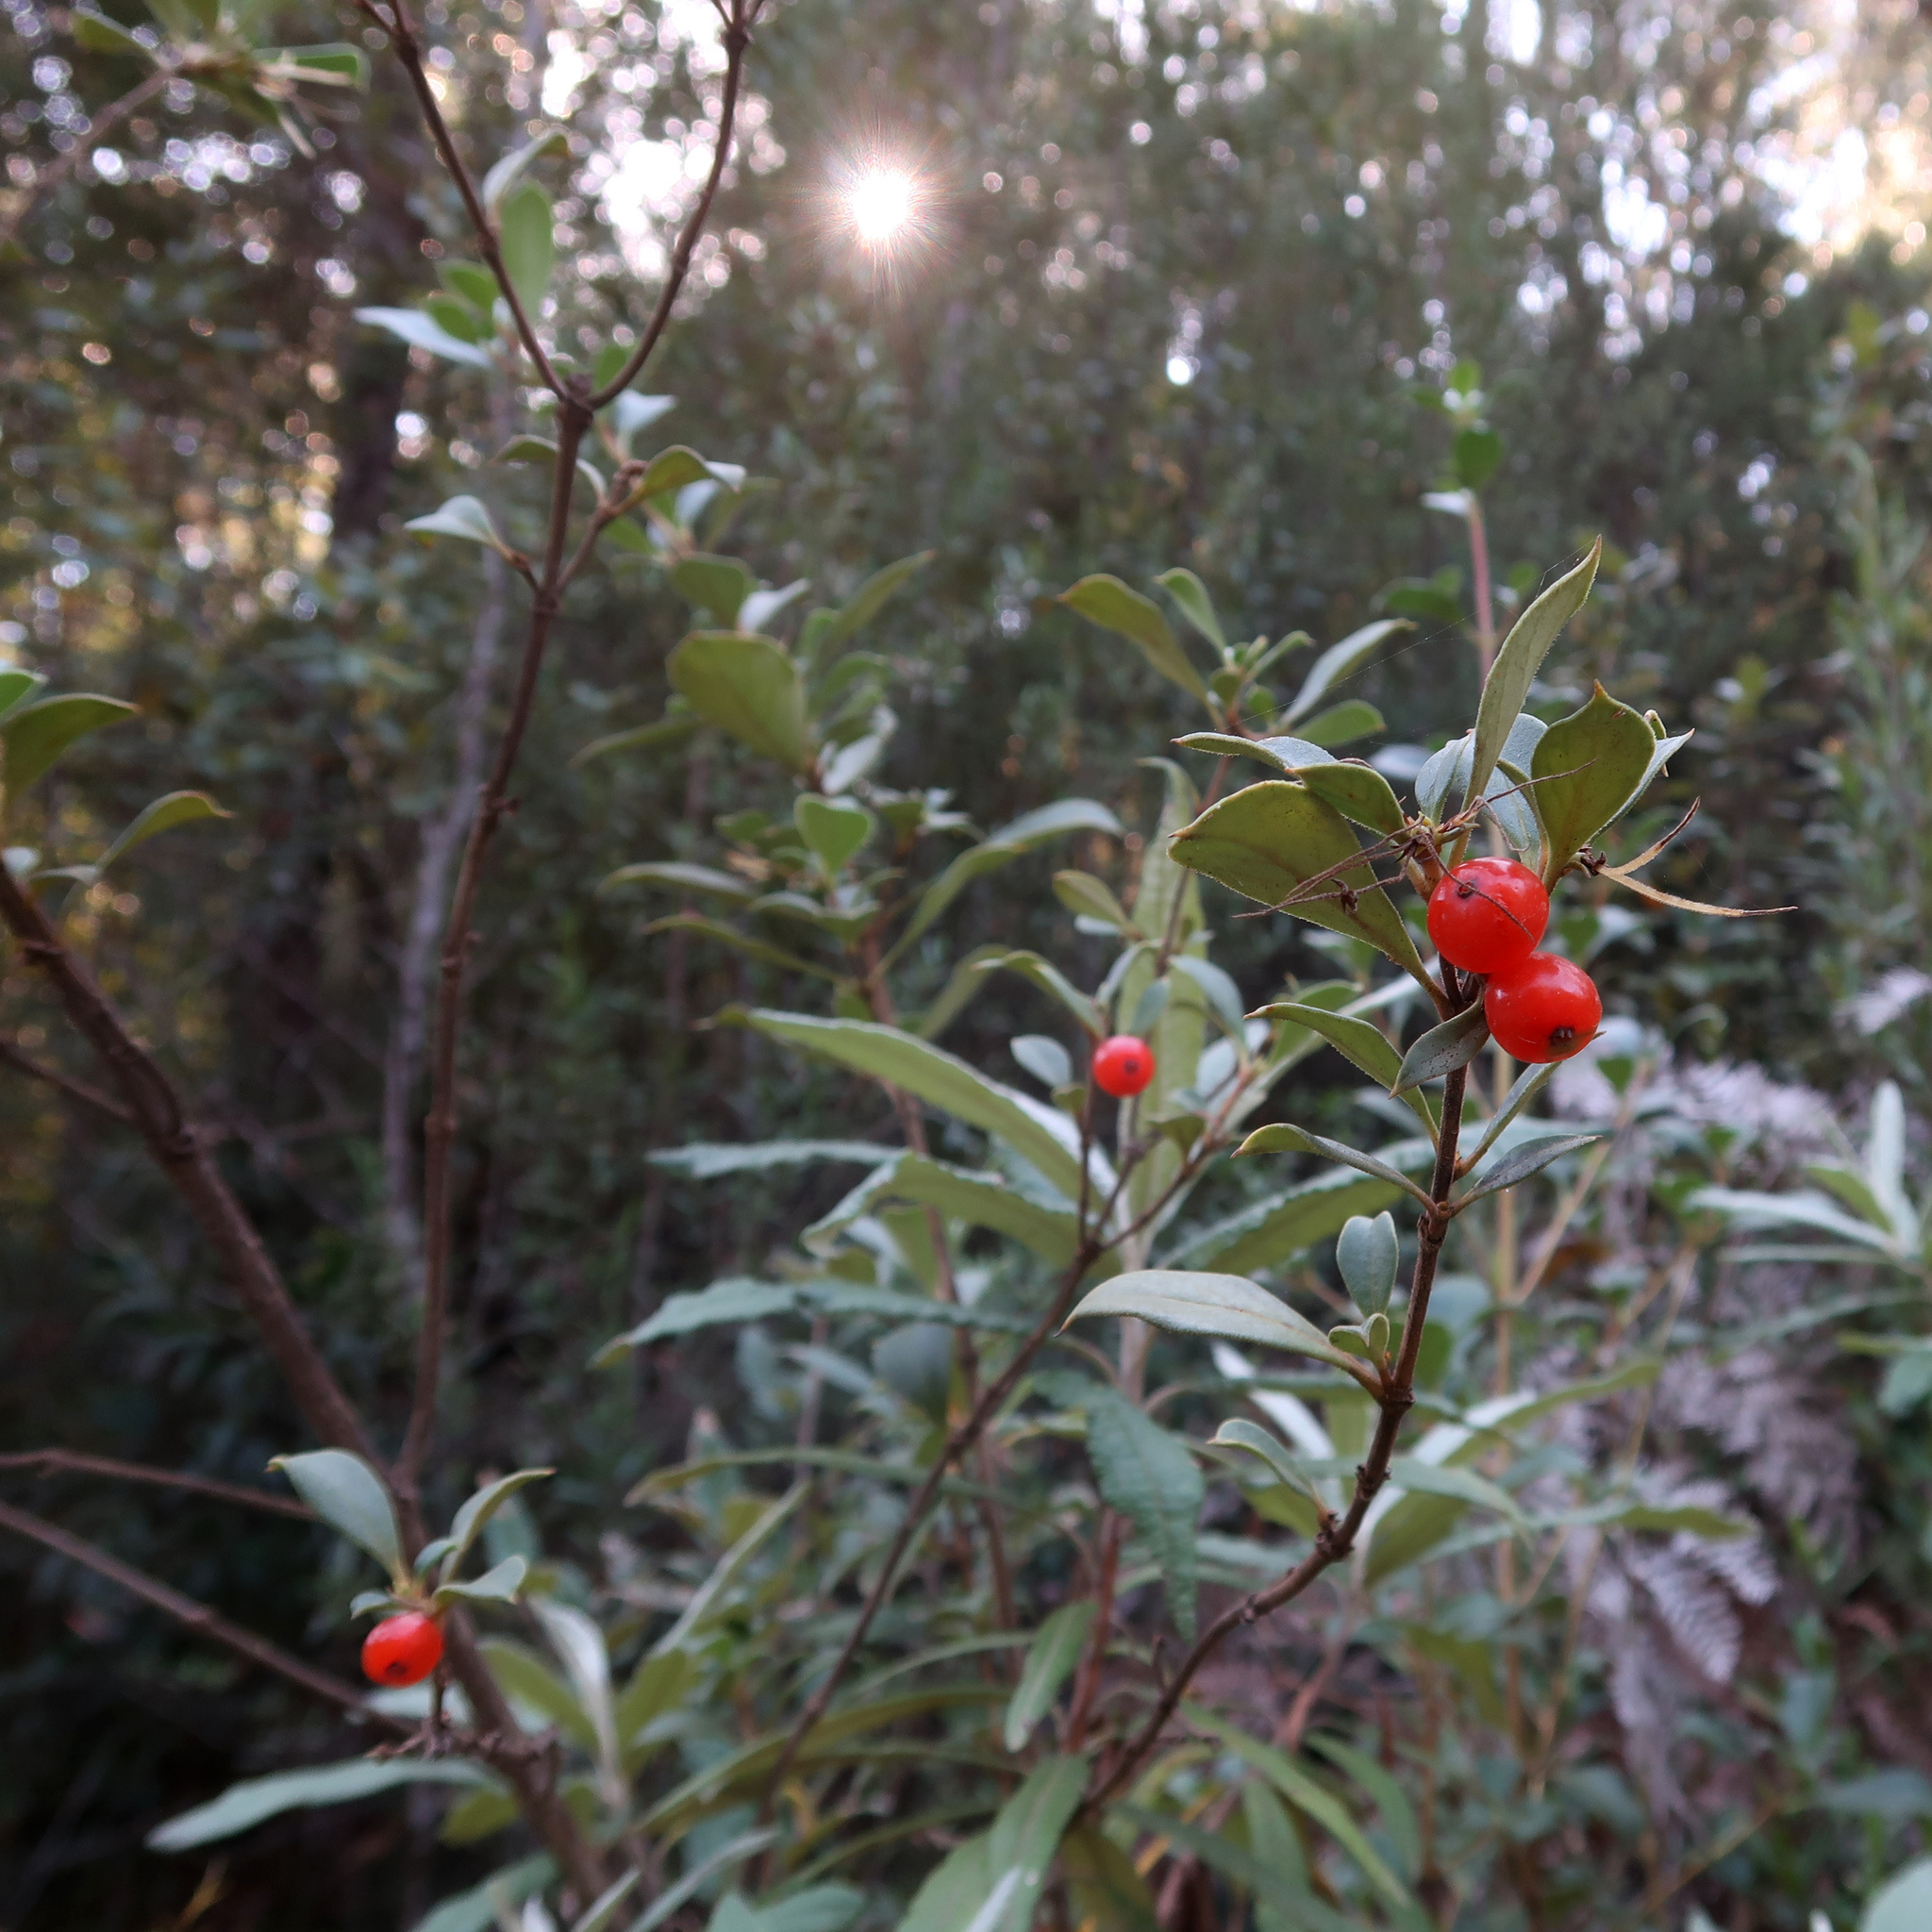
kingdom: Plantae
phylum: Tracheophyta
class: Magnoliopsida
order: Gentianales
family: Rubiaceae
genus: Coprosma
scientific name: Coprosma hirtella
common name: Rough coprosma
